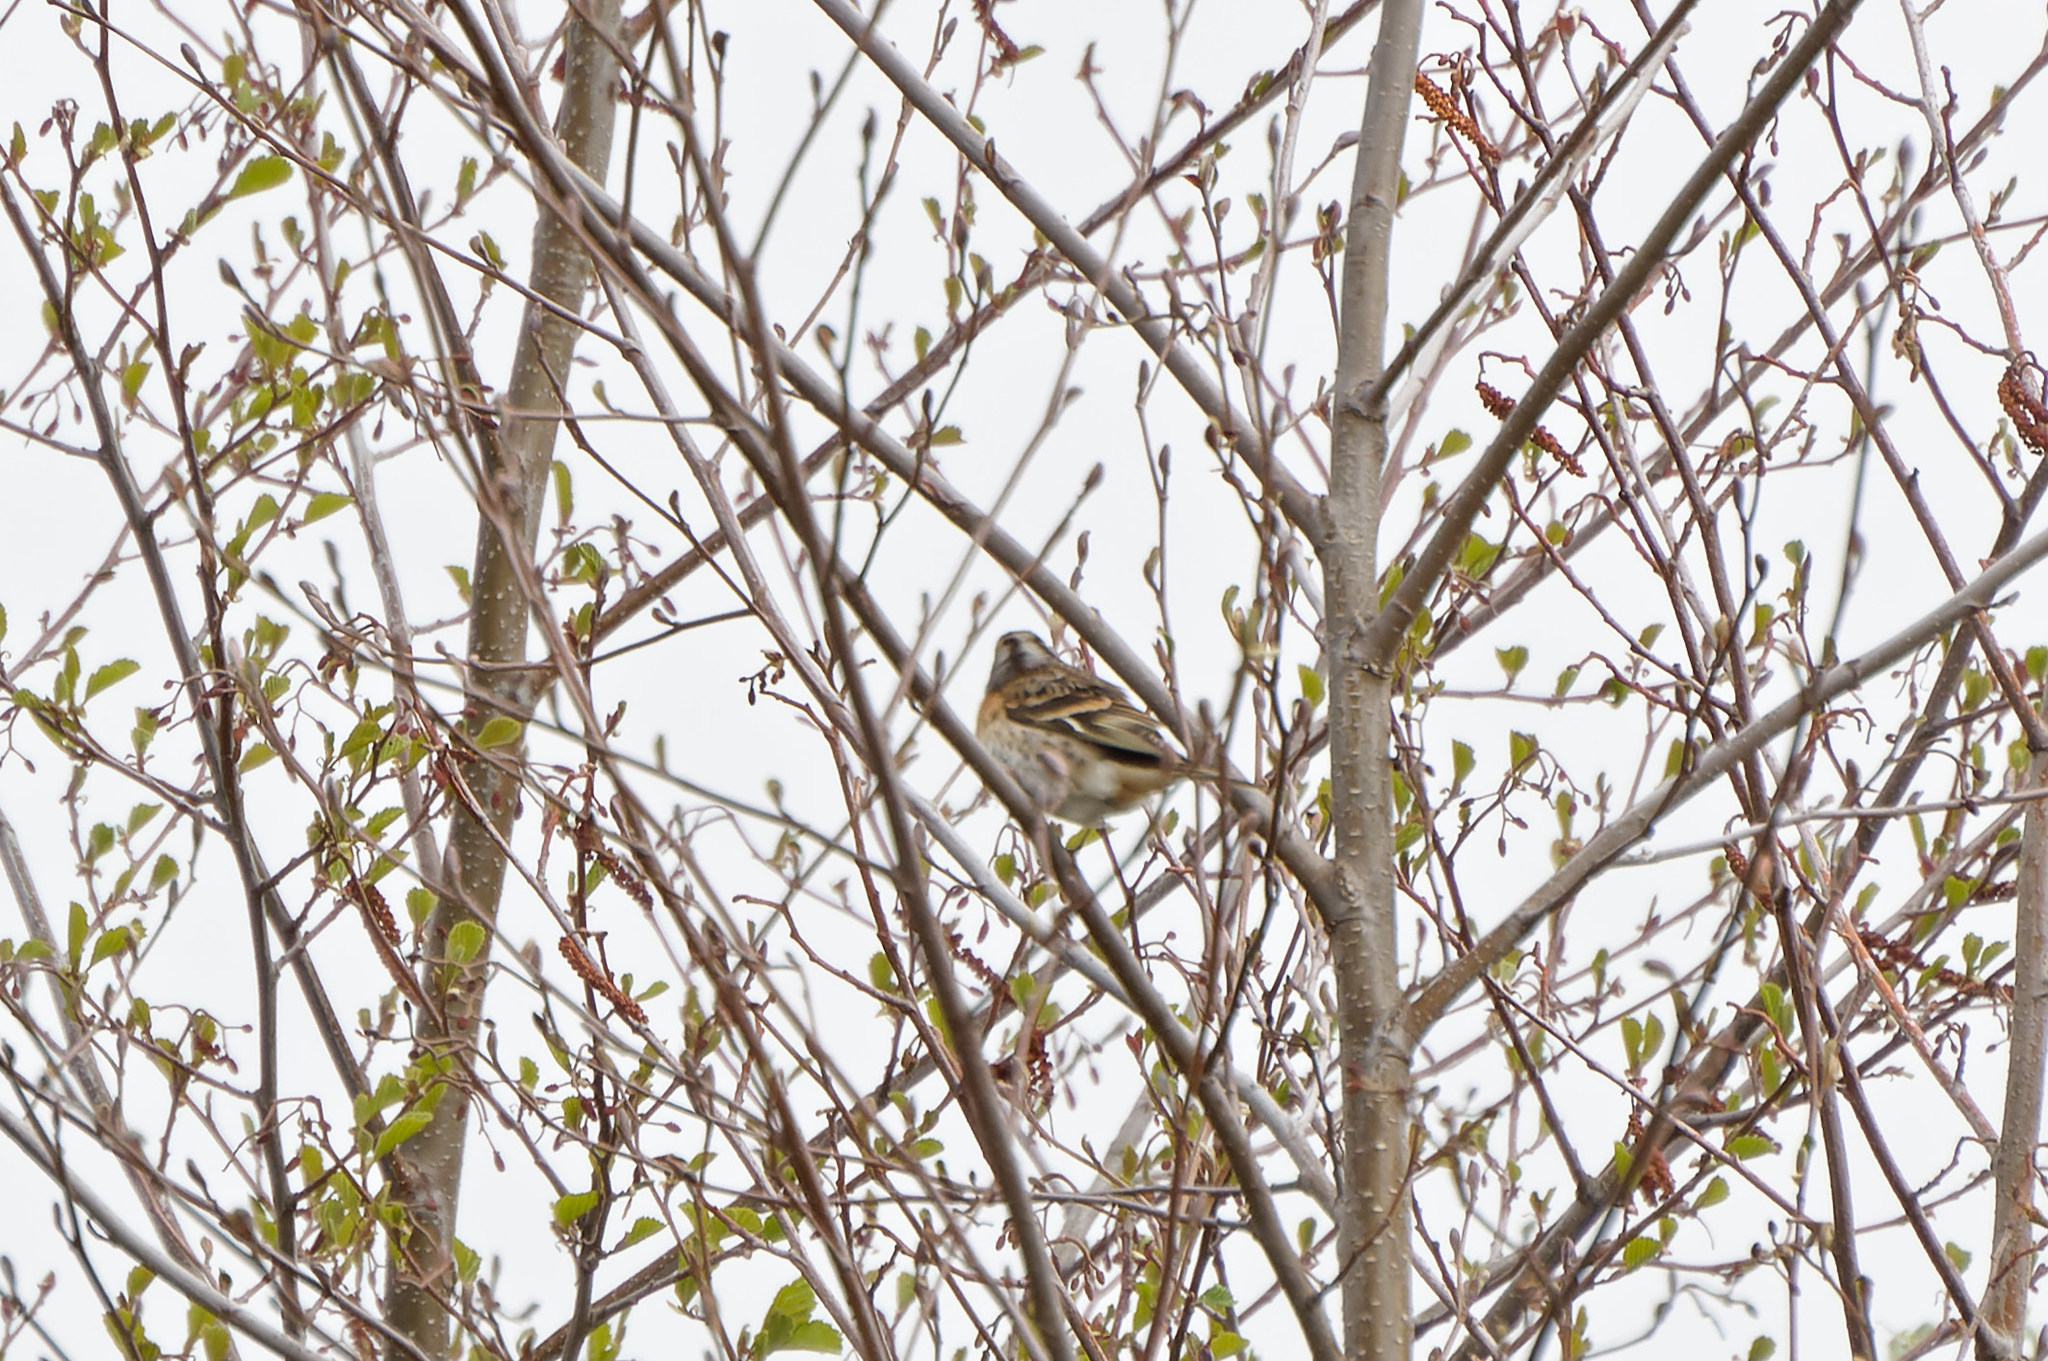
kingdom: Animalia
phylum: Chordata
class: Aves
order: Passeriformes
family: Fringillidae
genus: Fringilla
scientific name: Fringilla montifringilla
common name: Brambling
